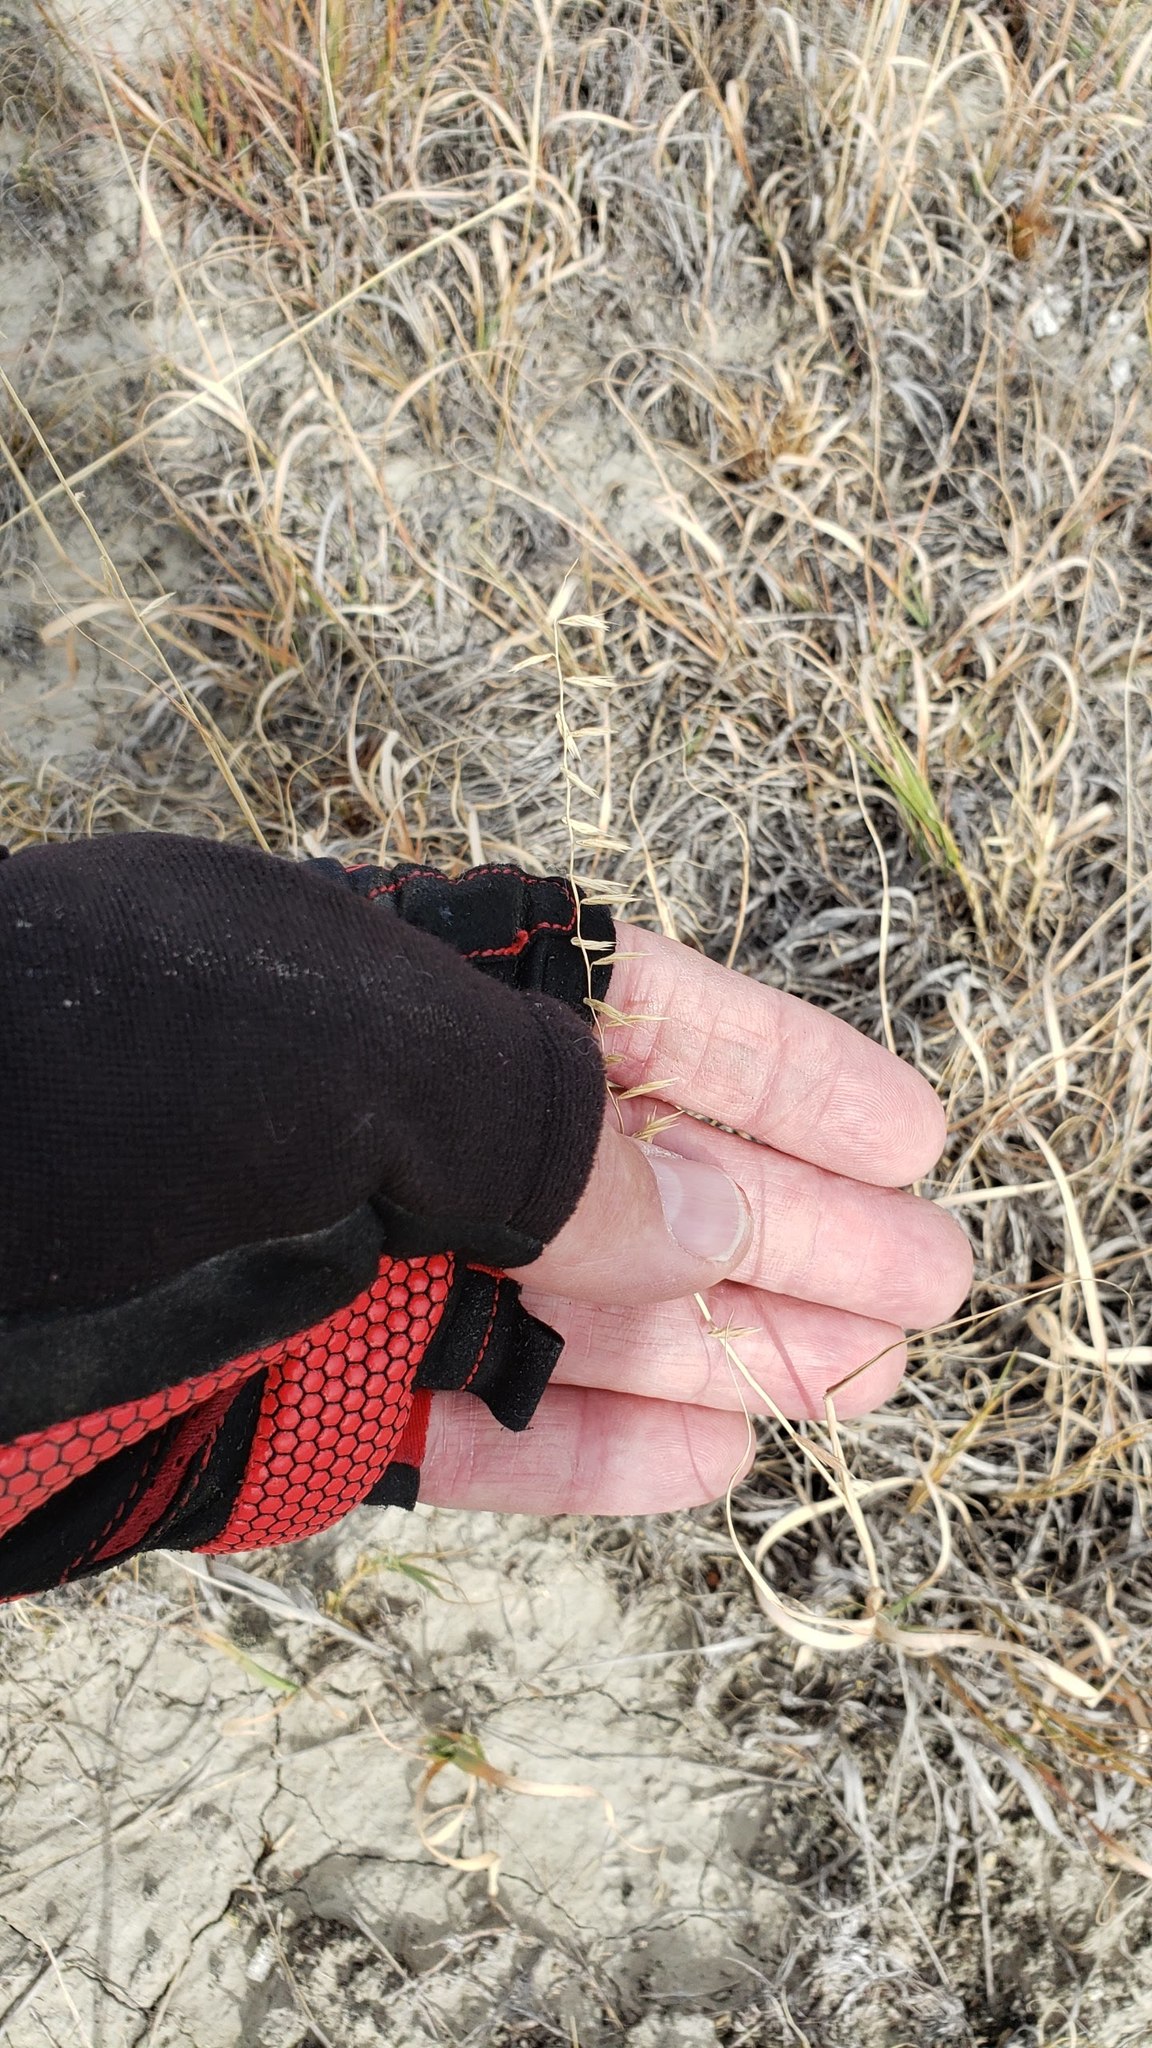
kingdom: Plantae
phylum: Tracheophyta
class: Liliopsida
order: Poales
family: Poaceae
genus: Bouteloua
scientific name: Bouteloua curtipendula
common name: Side-oats grama
